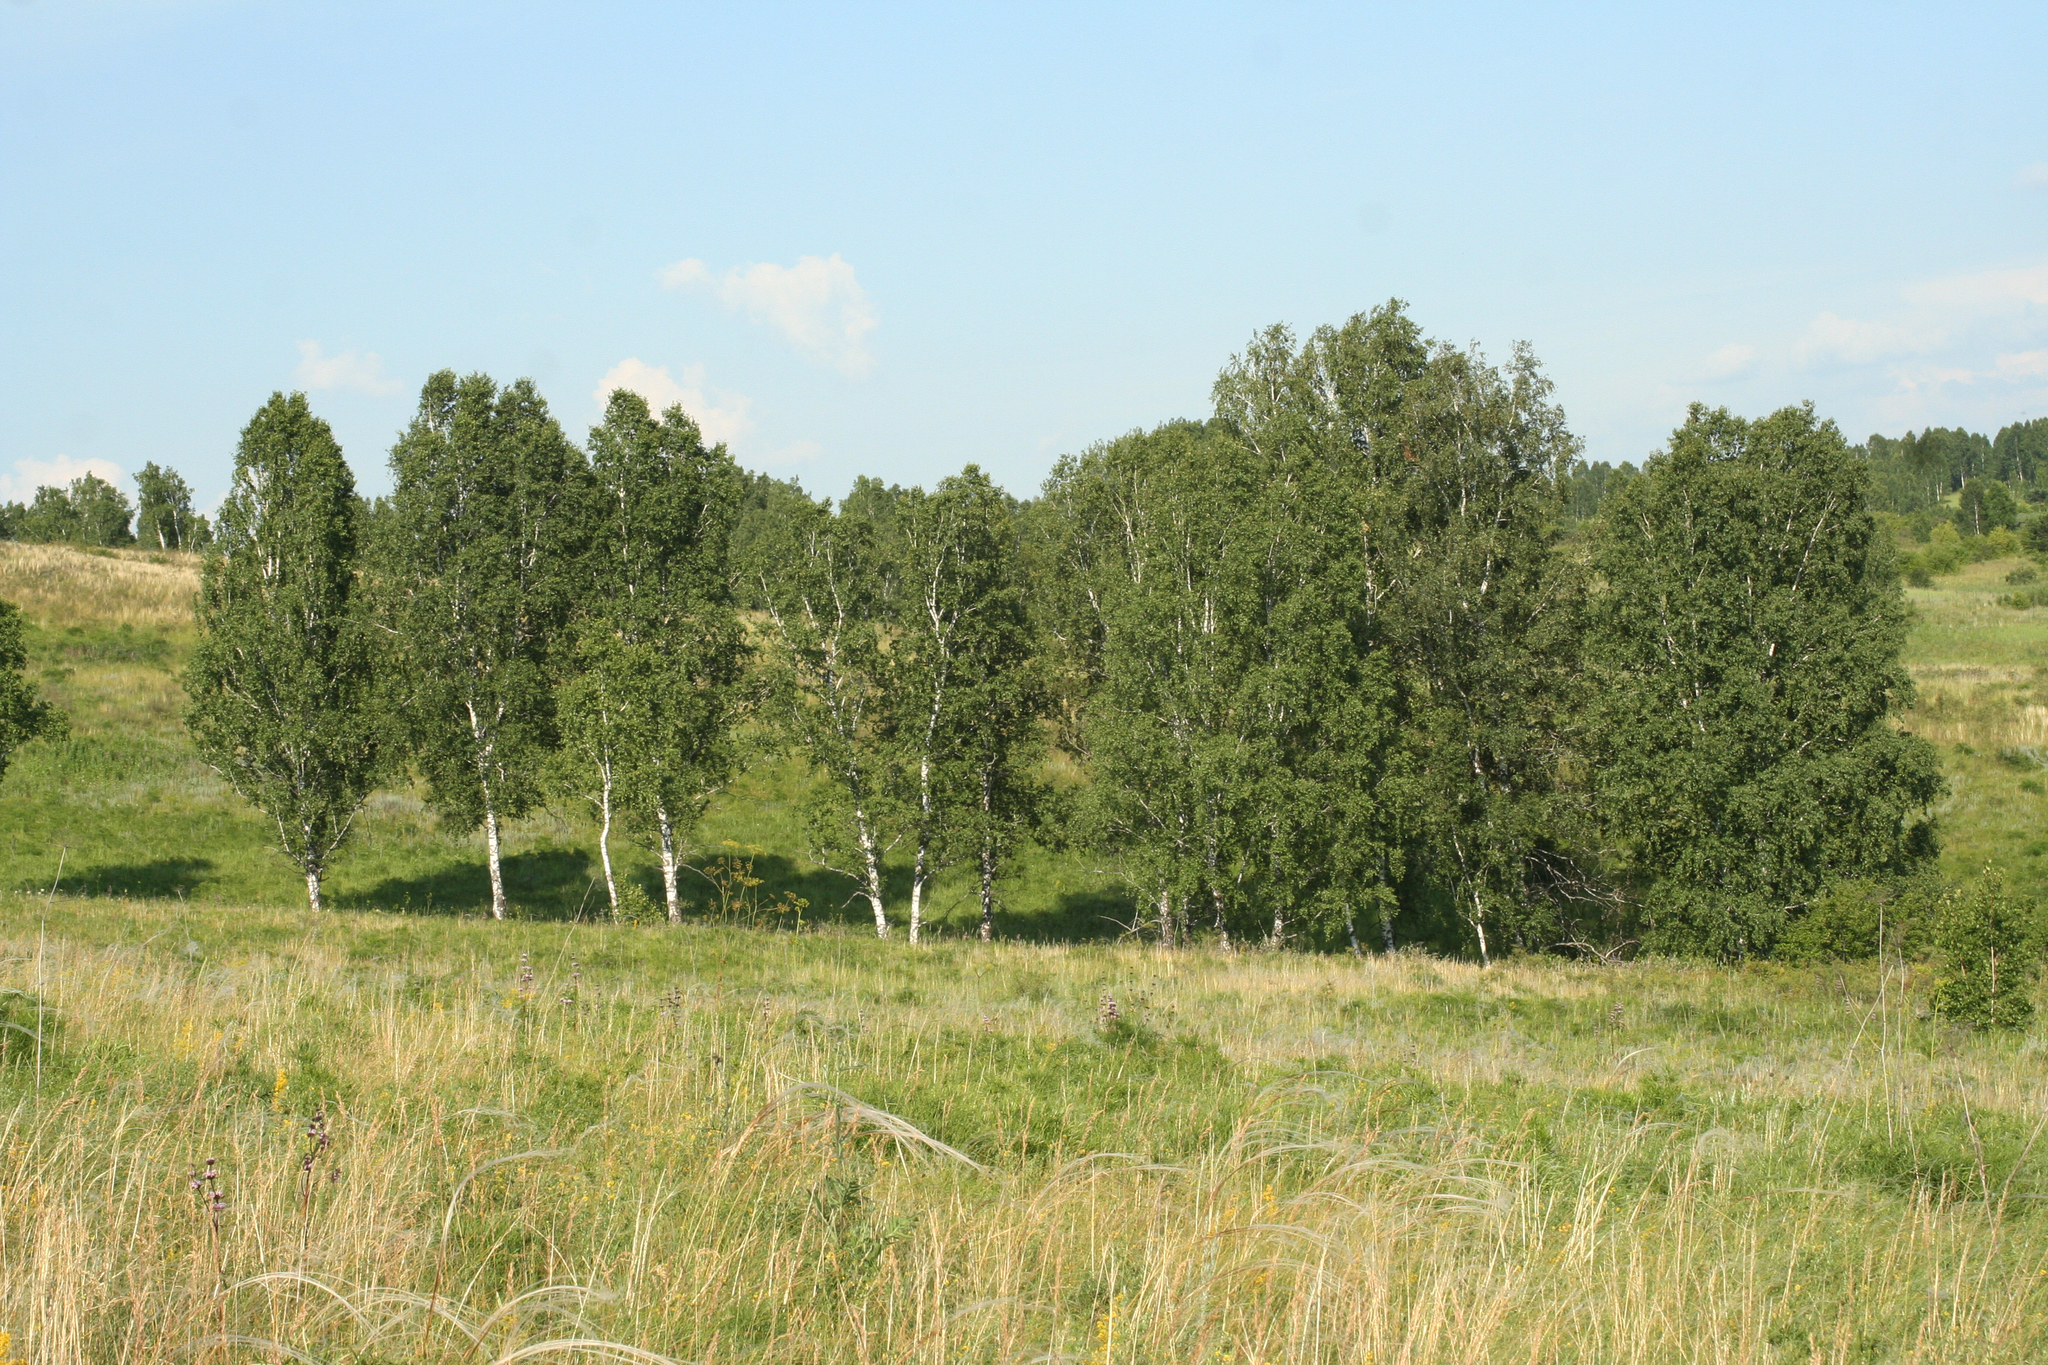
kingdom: Plantae
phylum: Tracheophyta
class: Magnoliopsida
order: Fagales
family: Betulaceae
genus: Betula
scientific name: Betula pendula
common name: Silver birch
